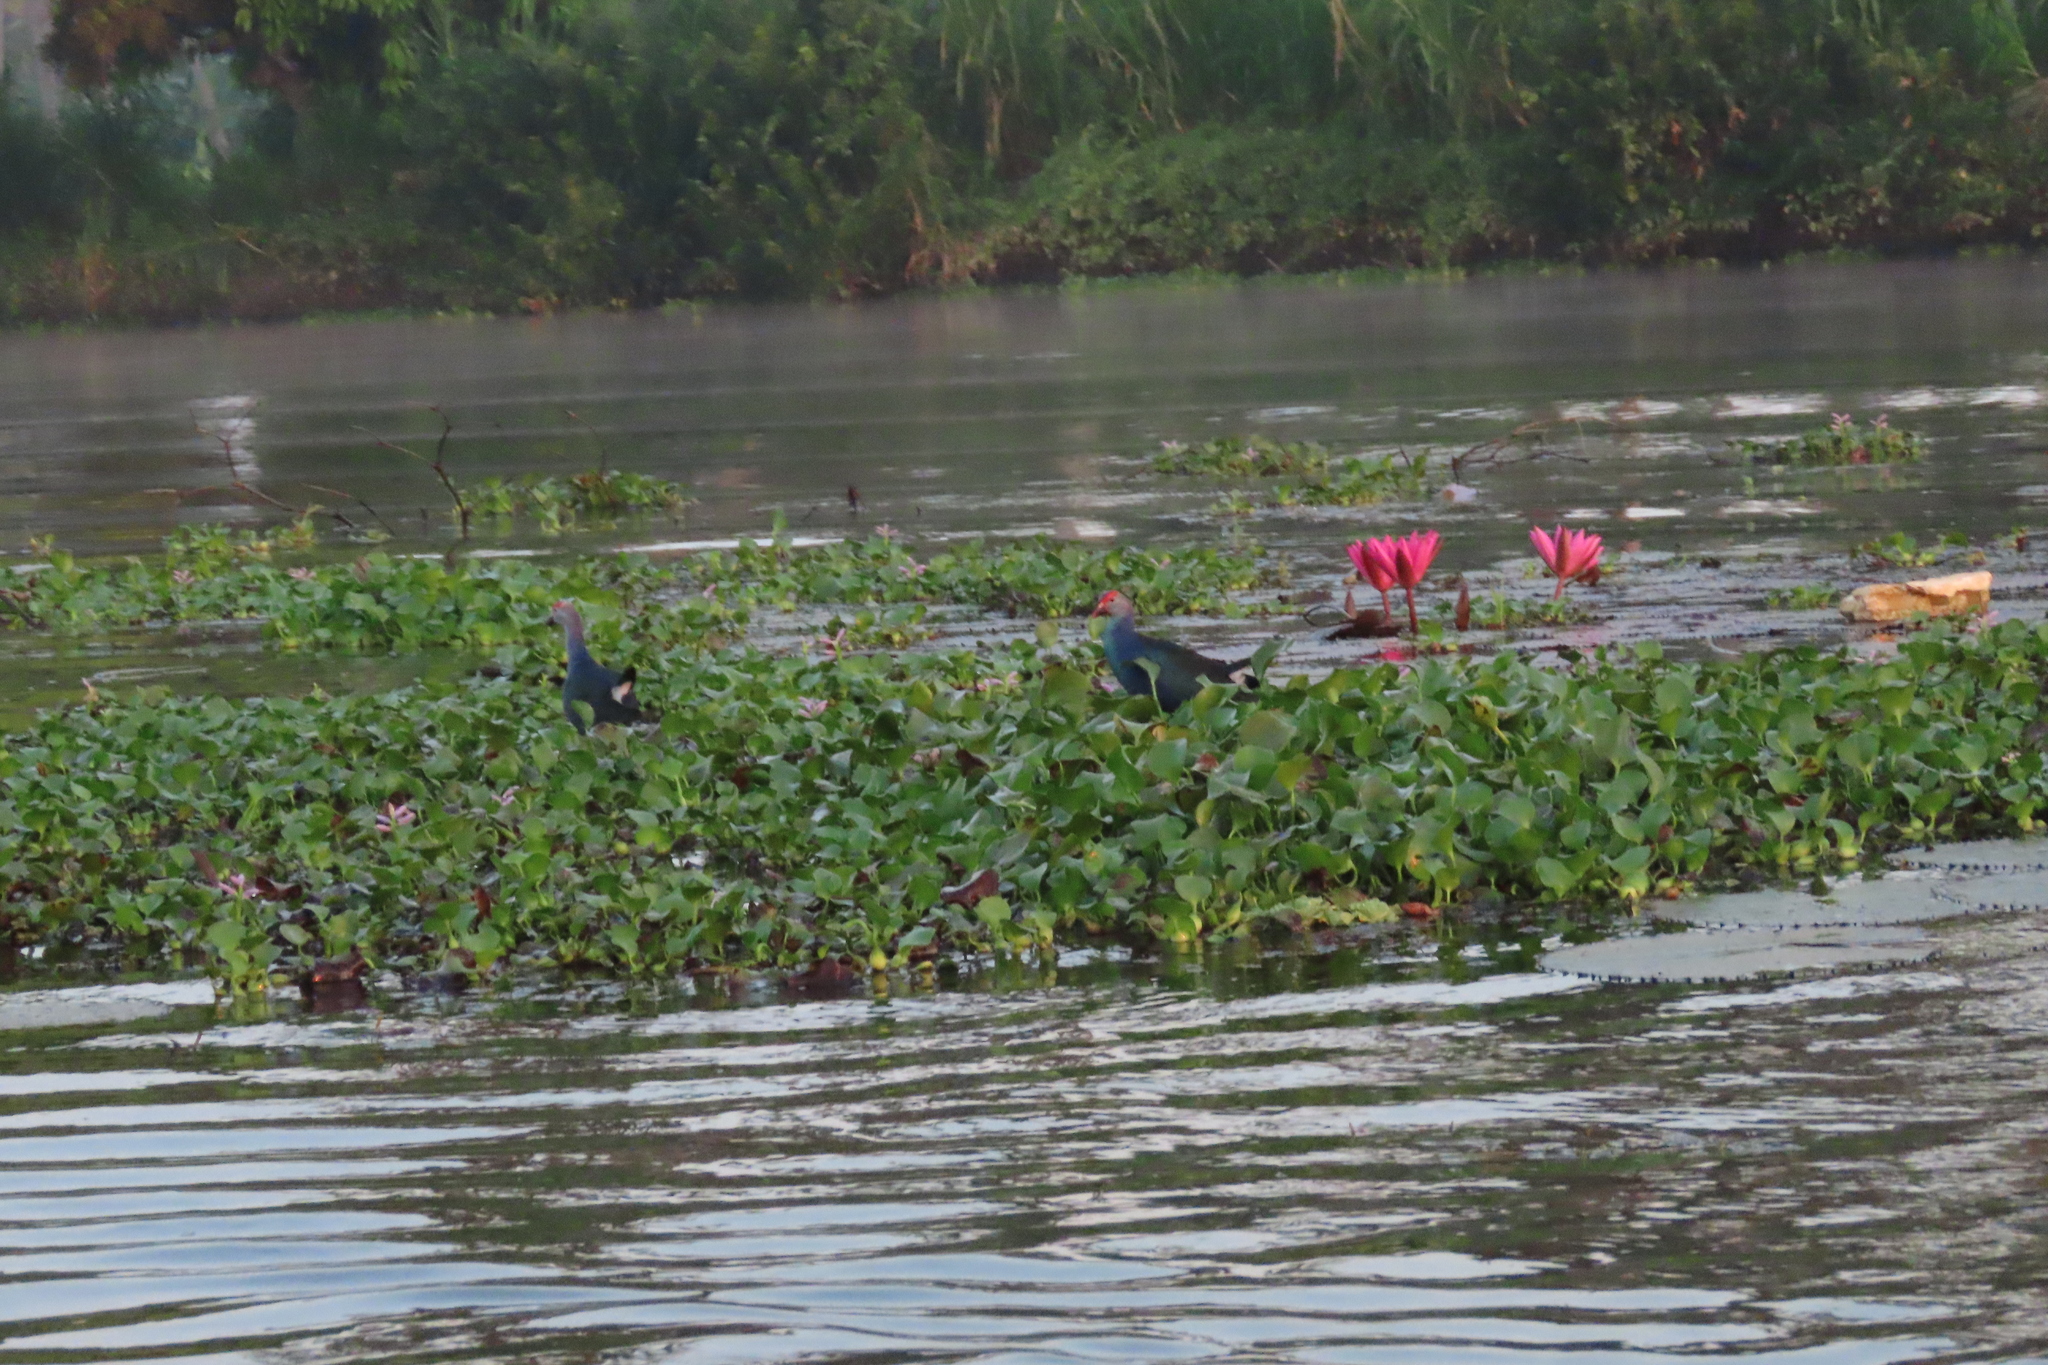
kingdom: Animalia
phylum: Chordata
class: Aves
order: Gruiformes
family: Rallidae
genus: Porphyrio
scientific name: Porphyrio porphyrio
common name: Purple swamphen
